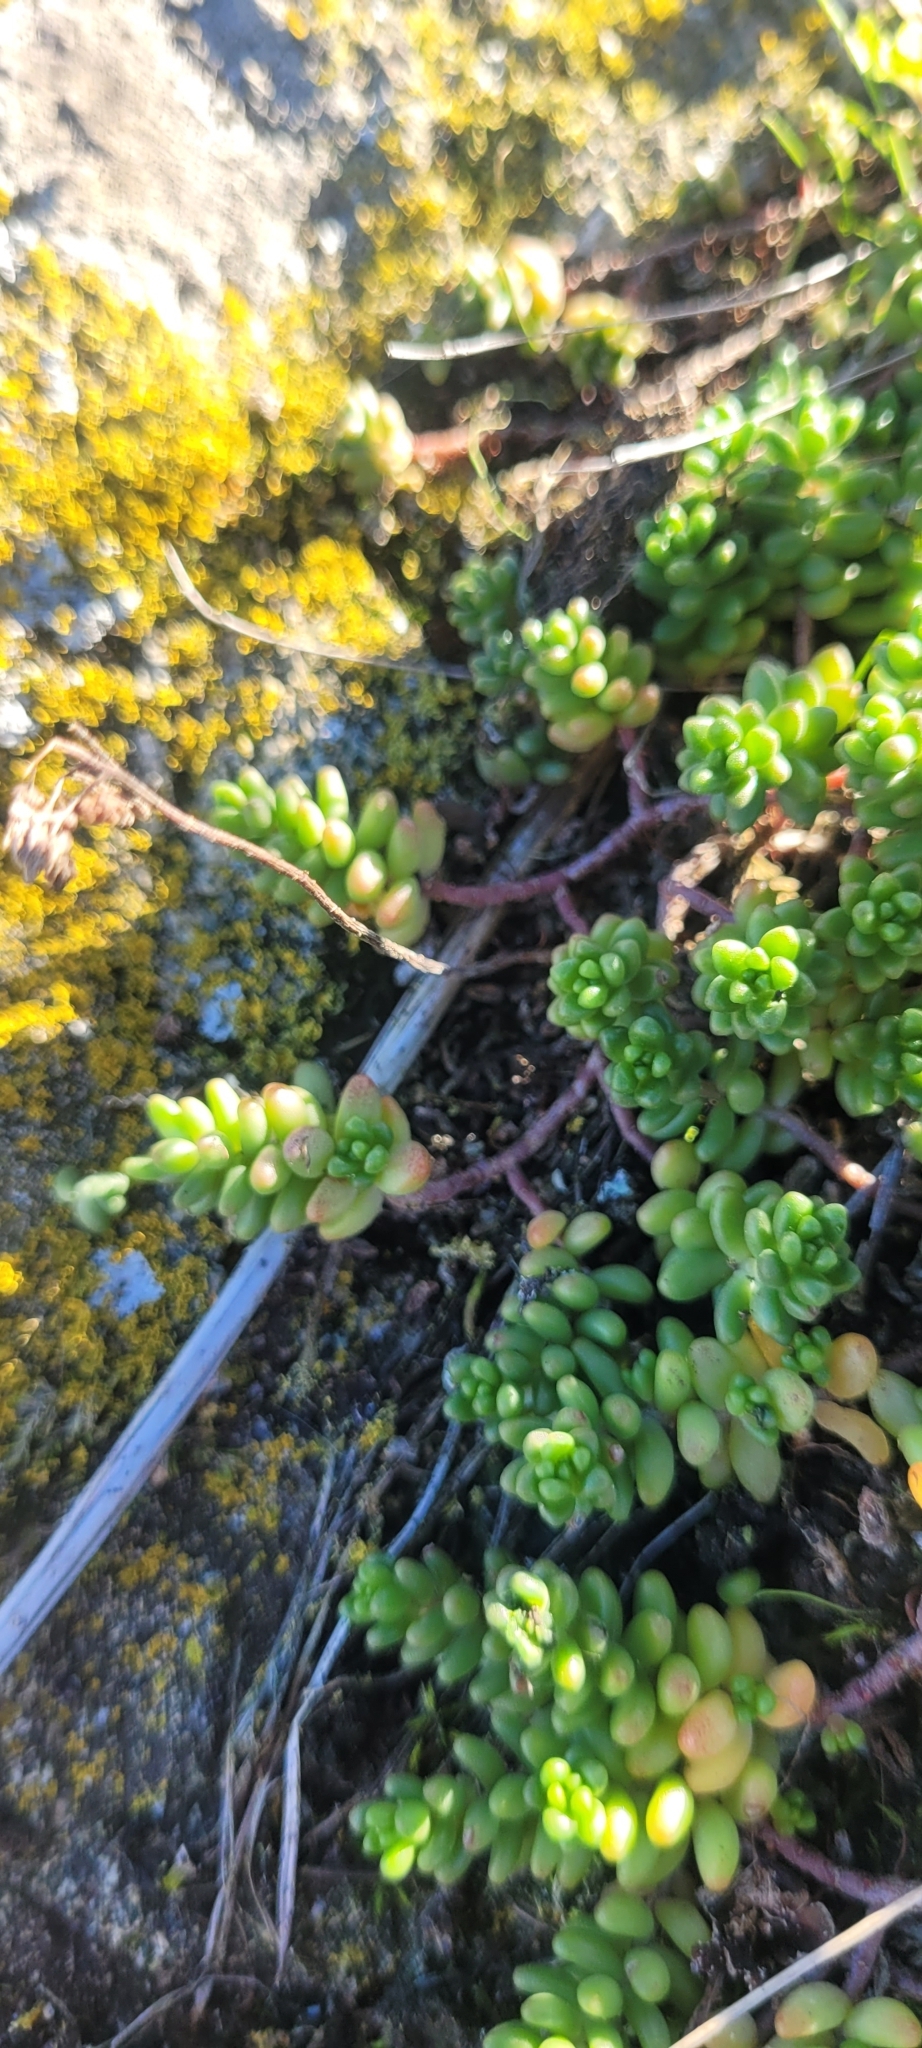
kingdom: Plantae
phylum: Tracheophyta
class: Magnoliopsida
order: Saxifragales
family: Crassulaceae
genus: Sedum
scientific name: Sedum album
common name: White stonecrop
